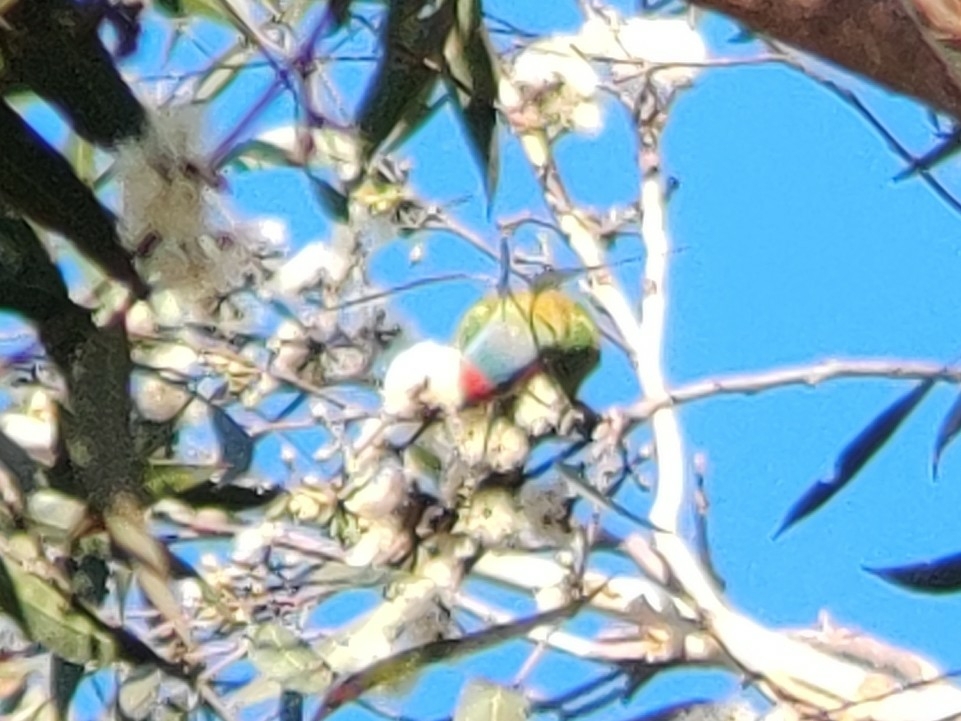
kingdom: Animalia
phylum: Chordata
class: Aves
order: Psittaciformes
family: Psittacidae
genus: Glossopsitta
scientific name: Glossopsitta concinna
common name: Musk lorikeet
